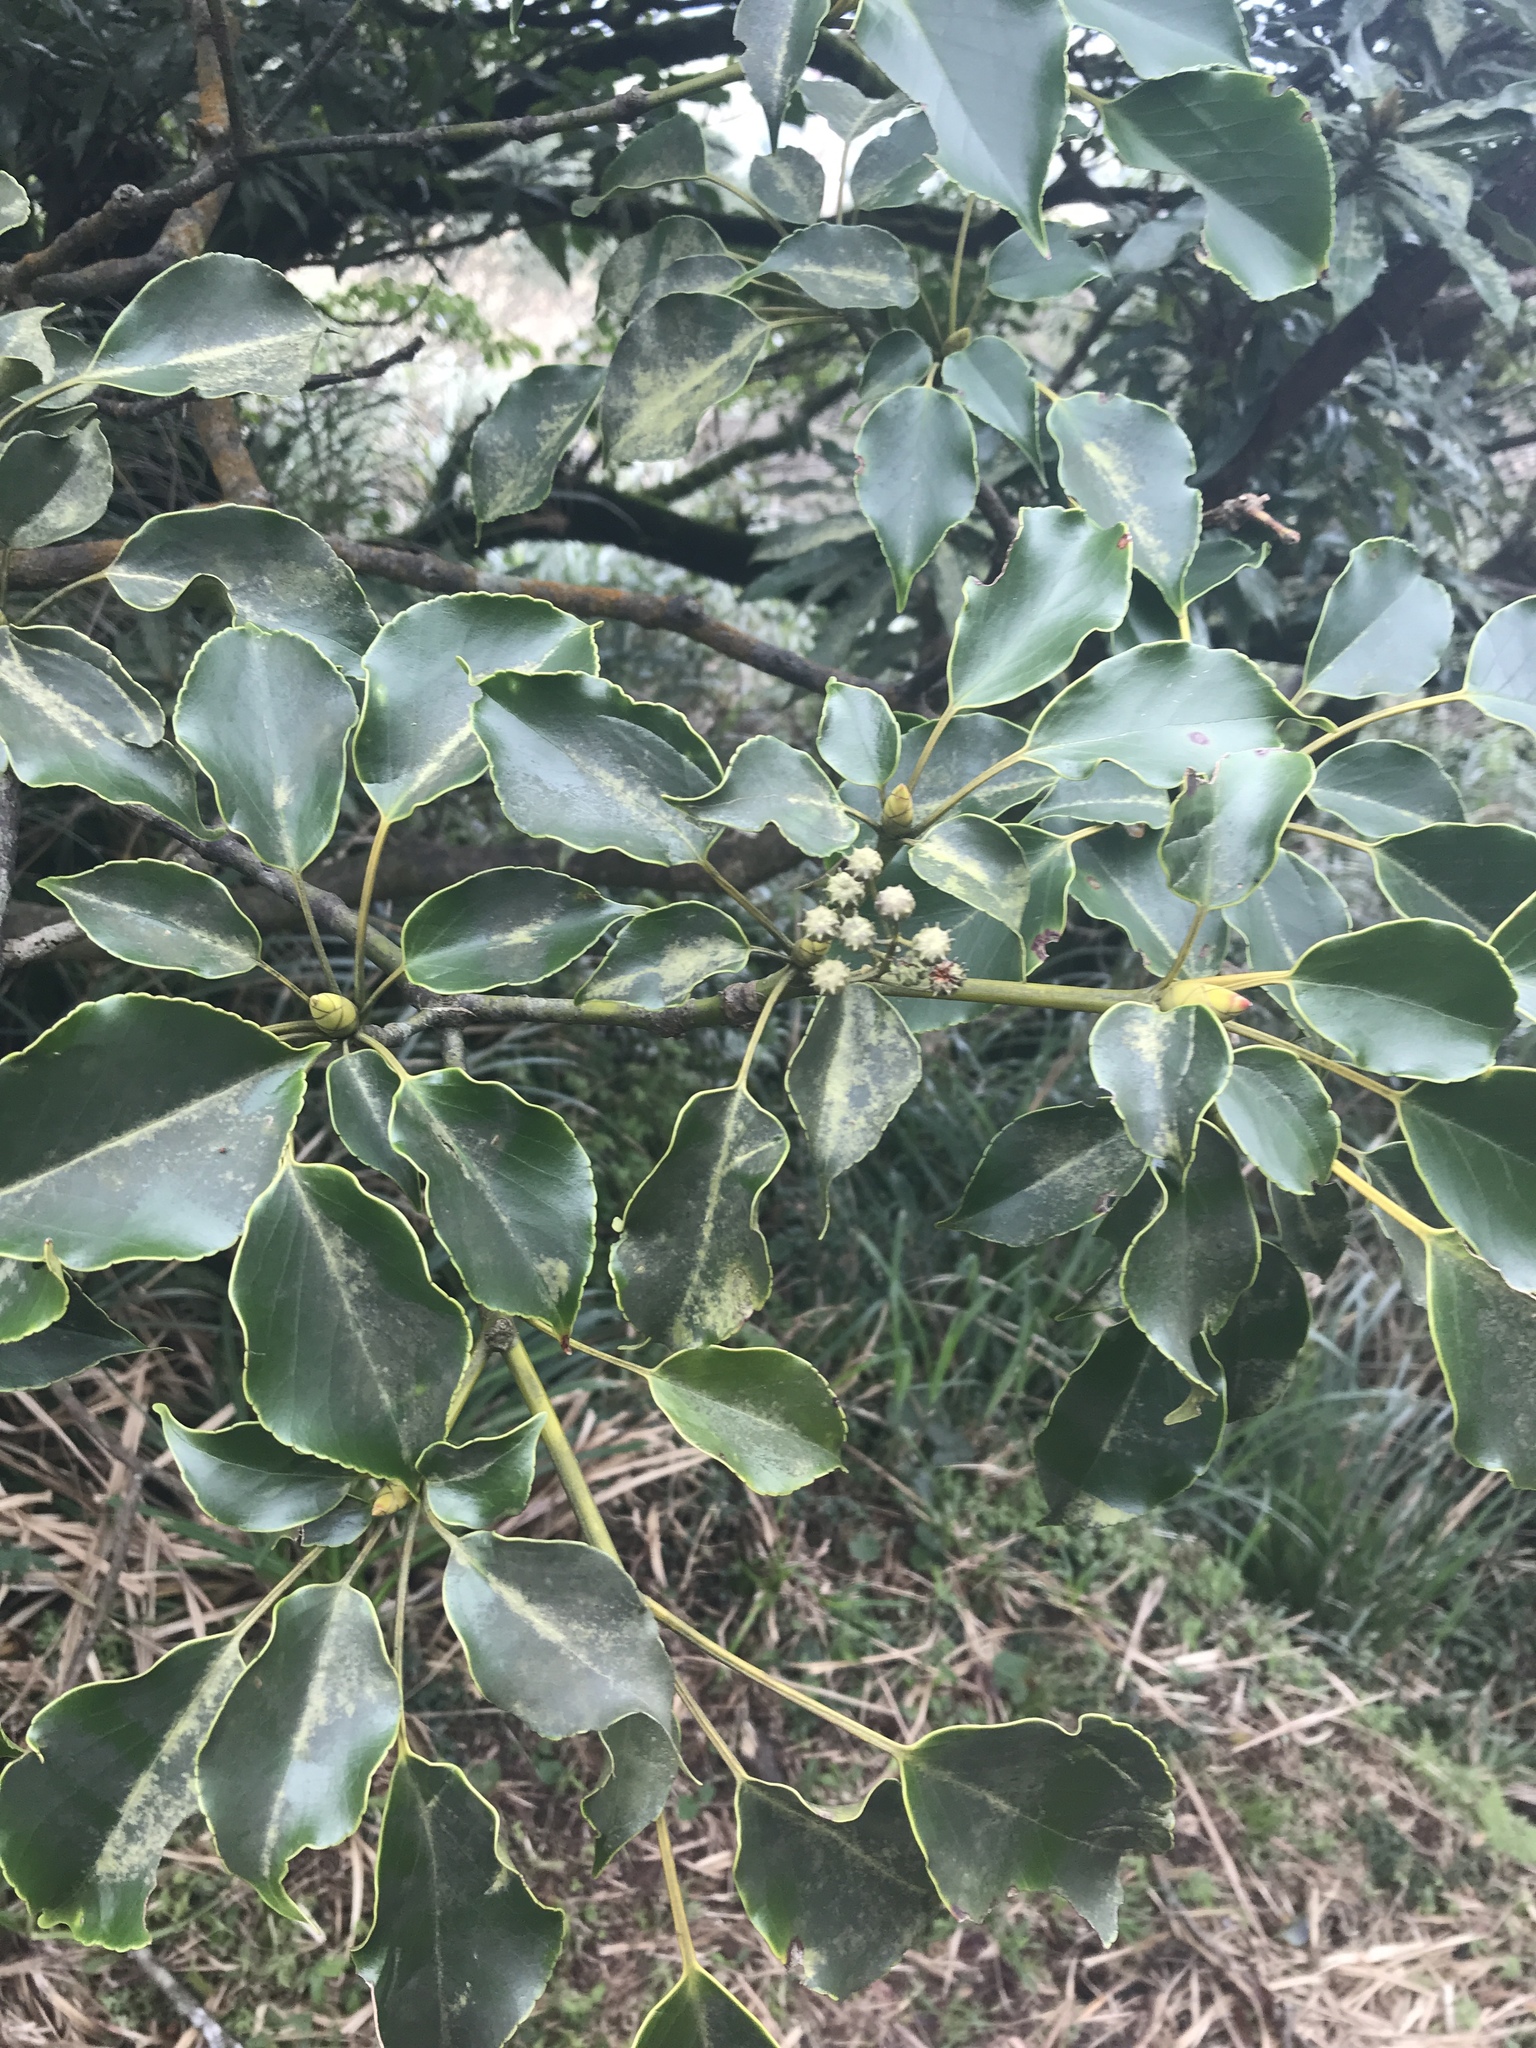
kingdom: Plantae
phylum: Tracheophyta
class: Magnoliopsida
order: Trochodendrales
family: Trochodendraceae
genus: Trochodendron
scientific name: Trochodendron aralioides
